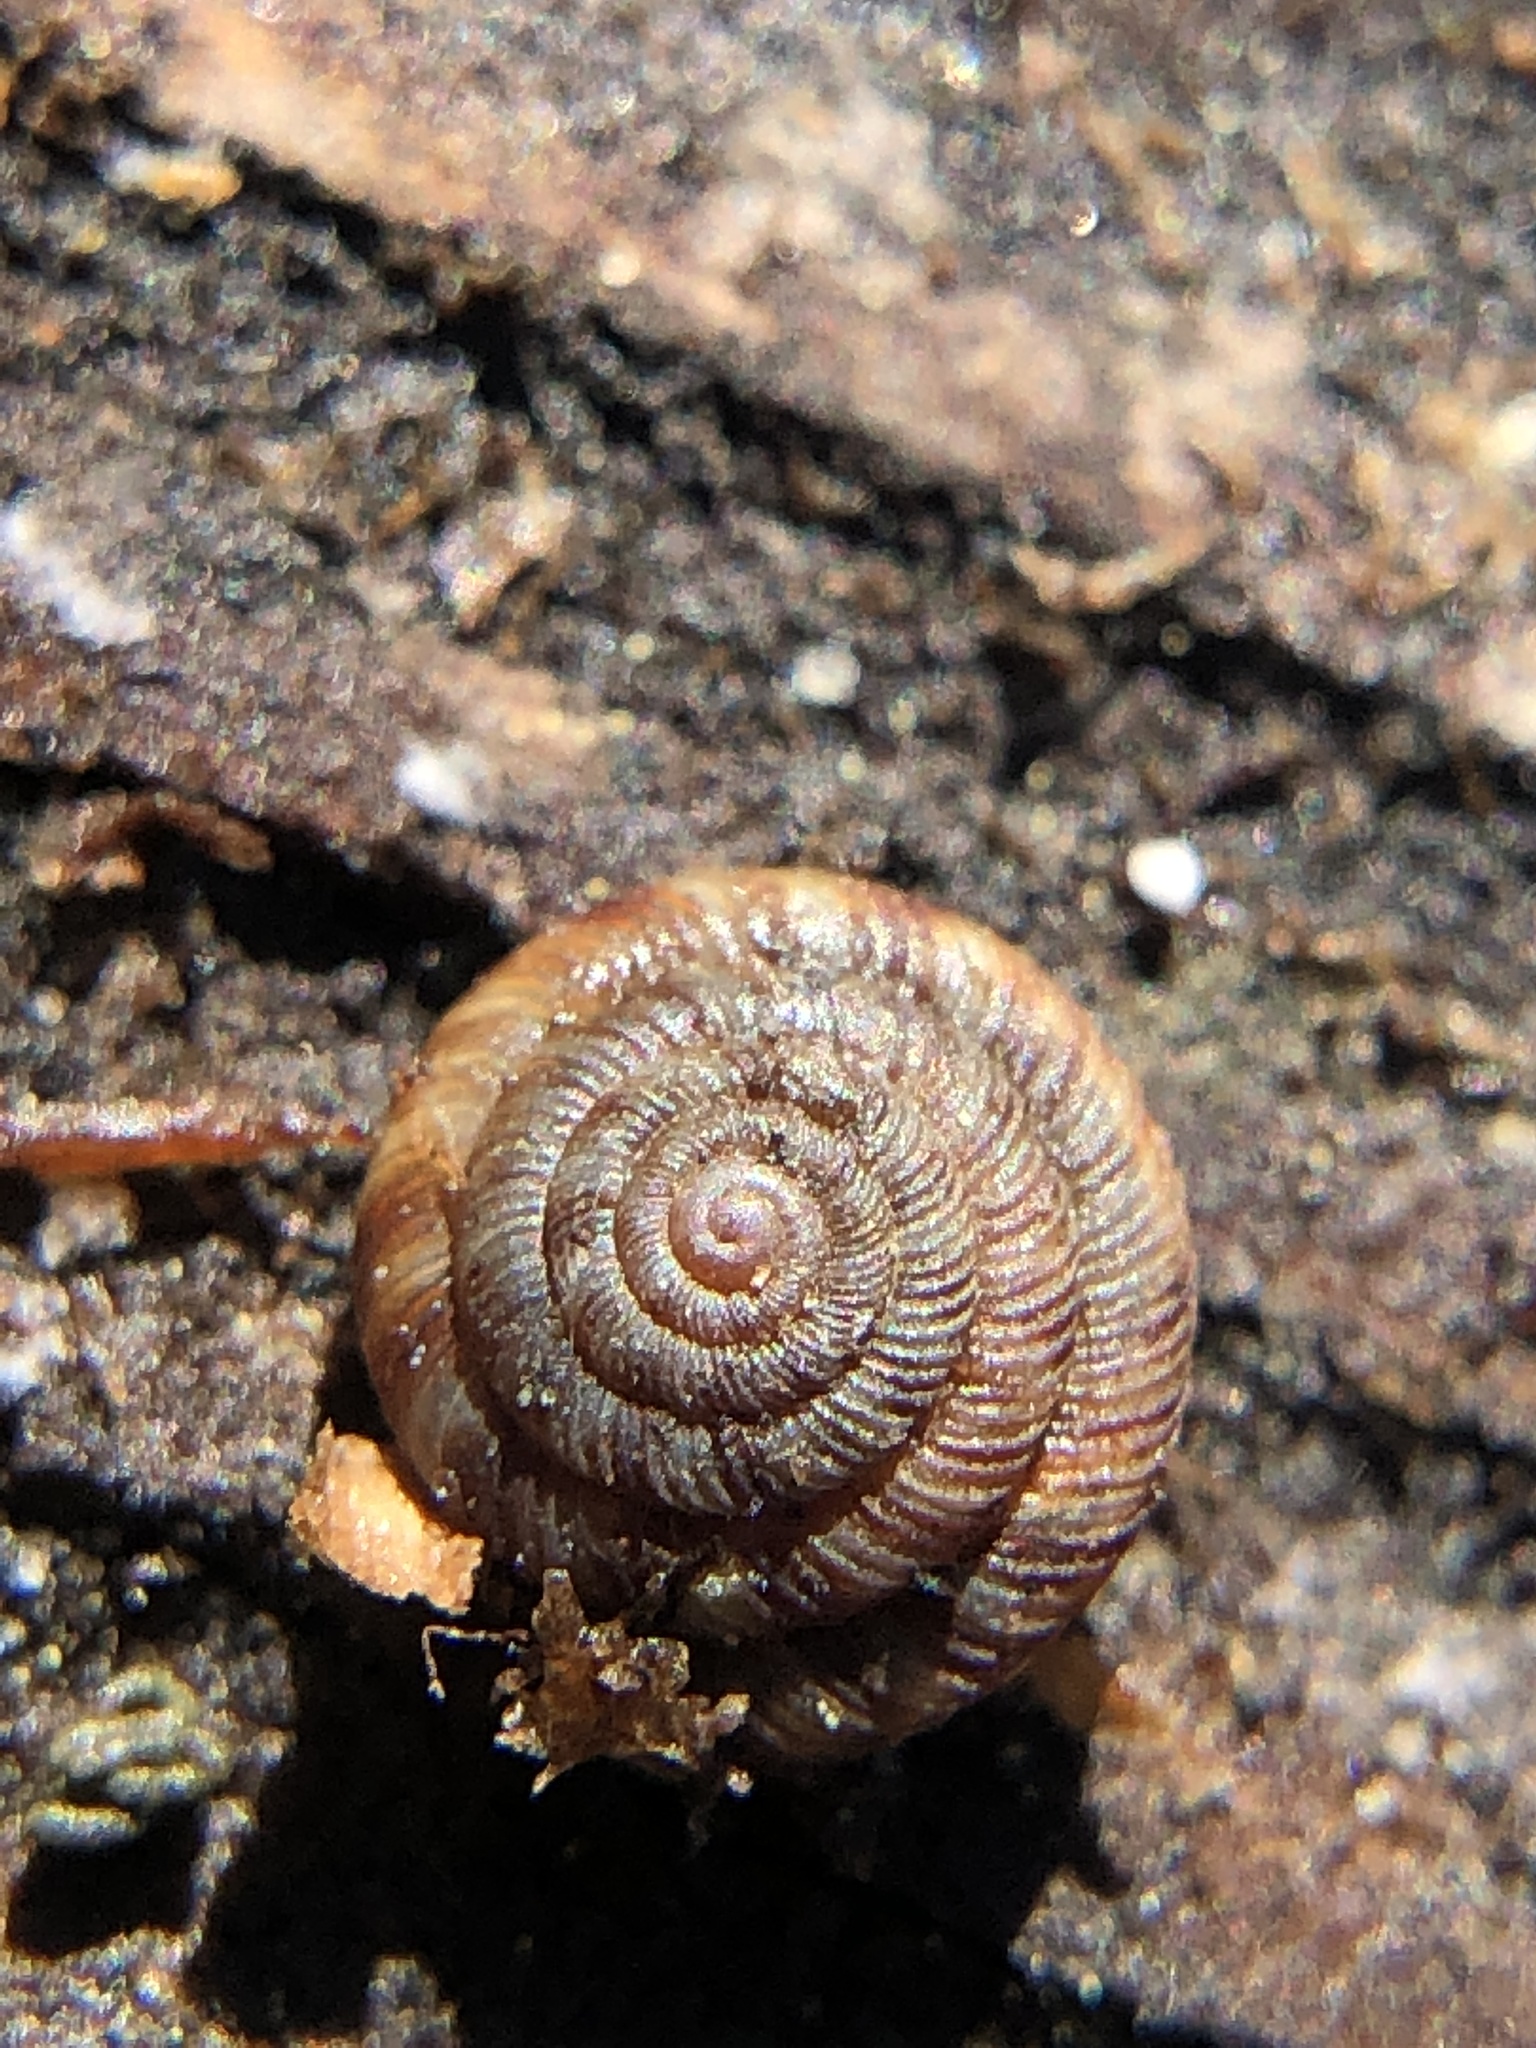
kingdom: Animalia
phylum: Mollusca
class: Gastropoda
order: Stylommatophora
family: Discidae
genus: Discus
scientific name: Discus rotundatus
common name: Rounded snail
